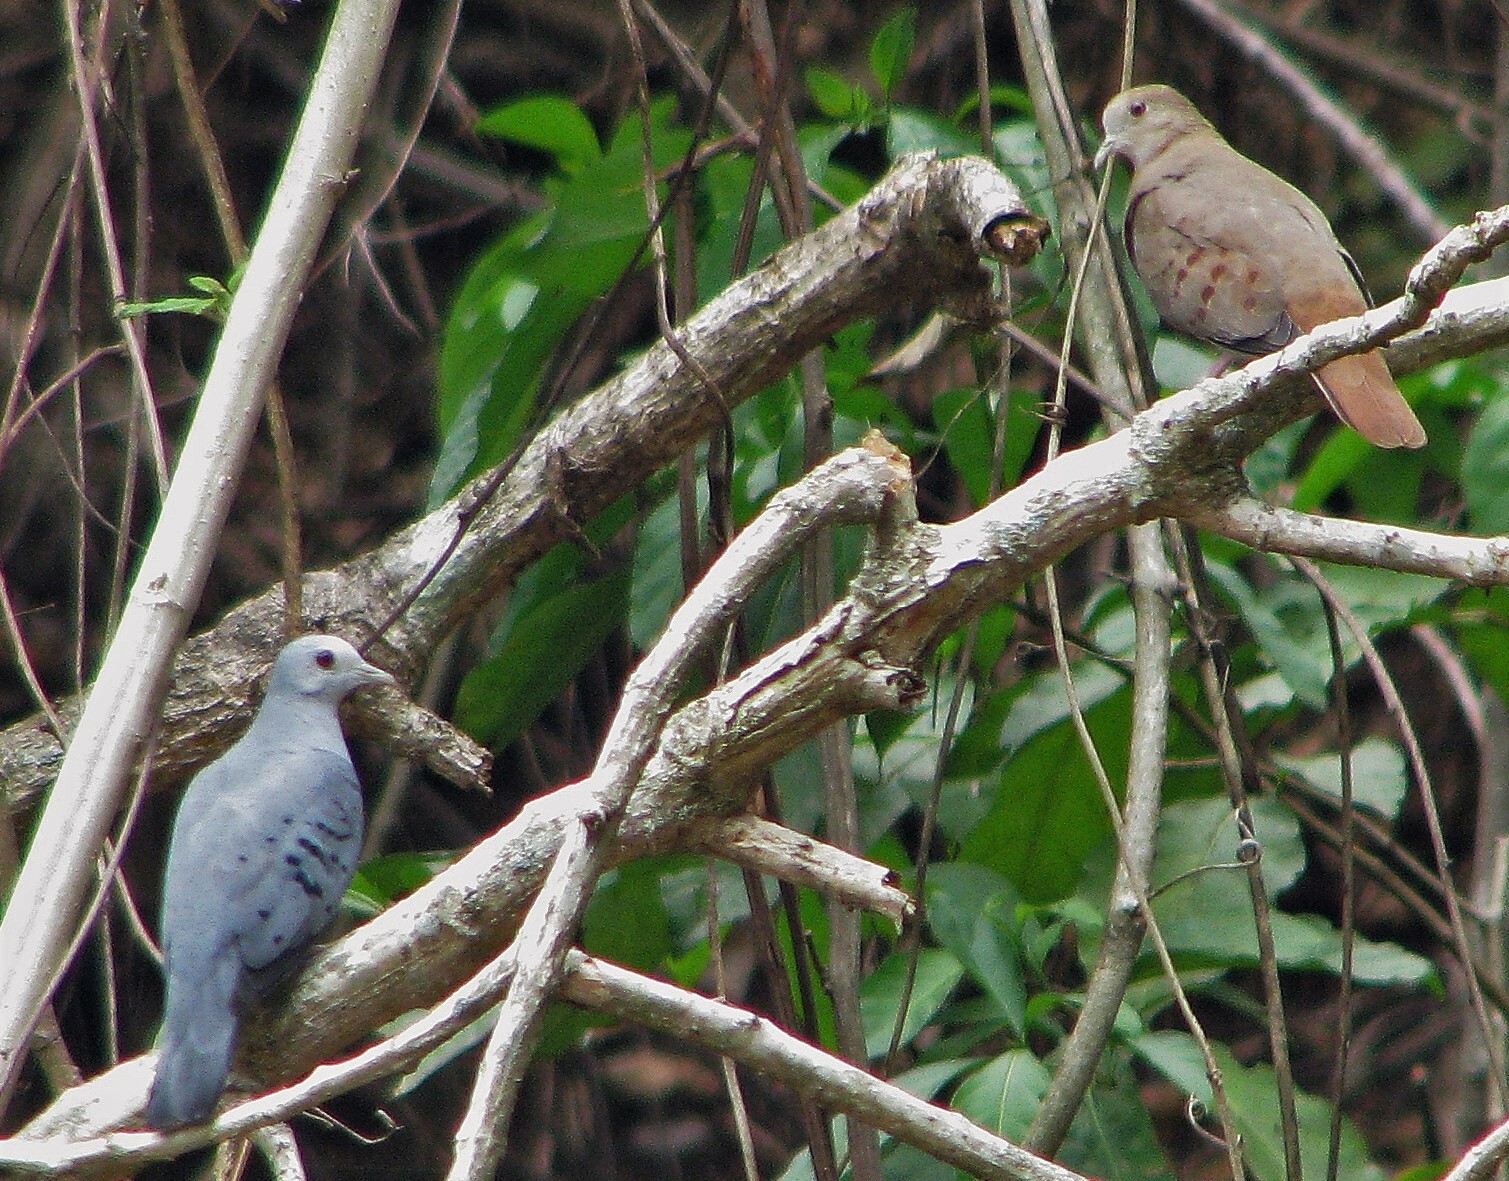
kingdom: Animalia
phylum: Chordata
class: Aves
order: Columbiformes
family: Columbidae
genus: Claravis
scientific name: Claravis pretiosa
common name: Blue ground-dove
